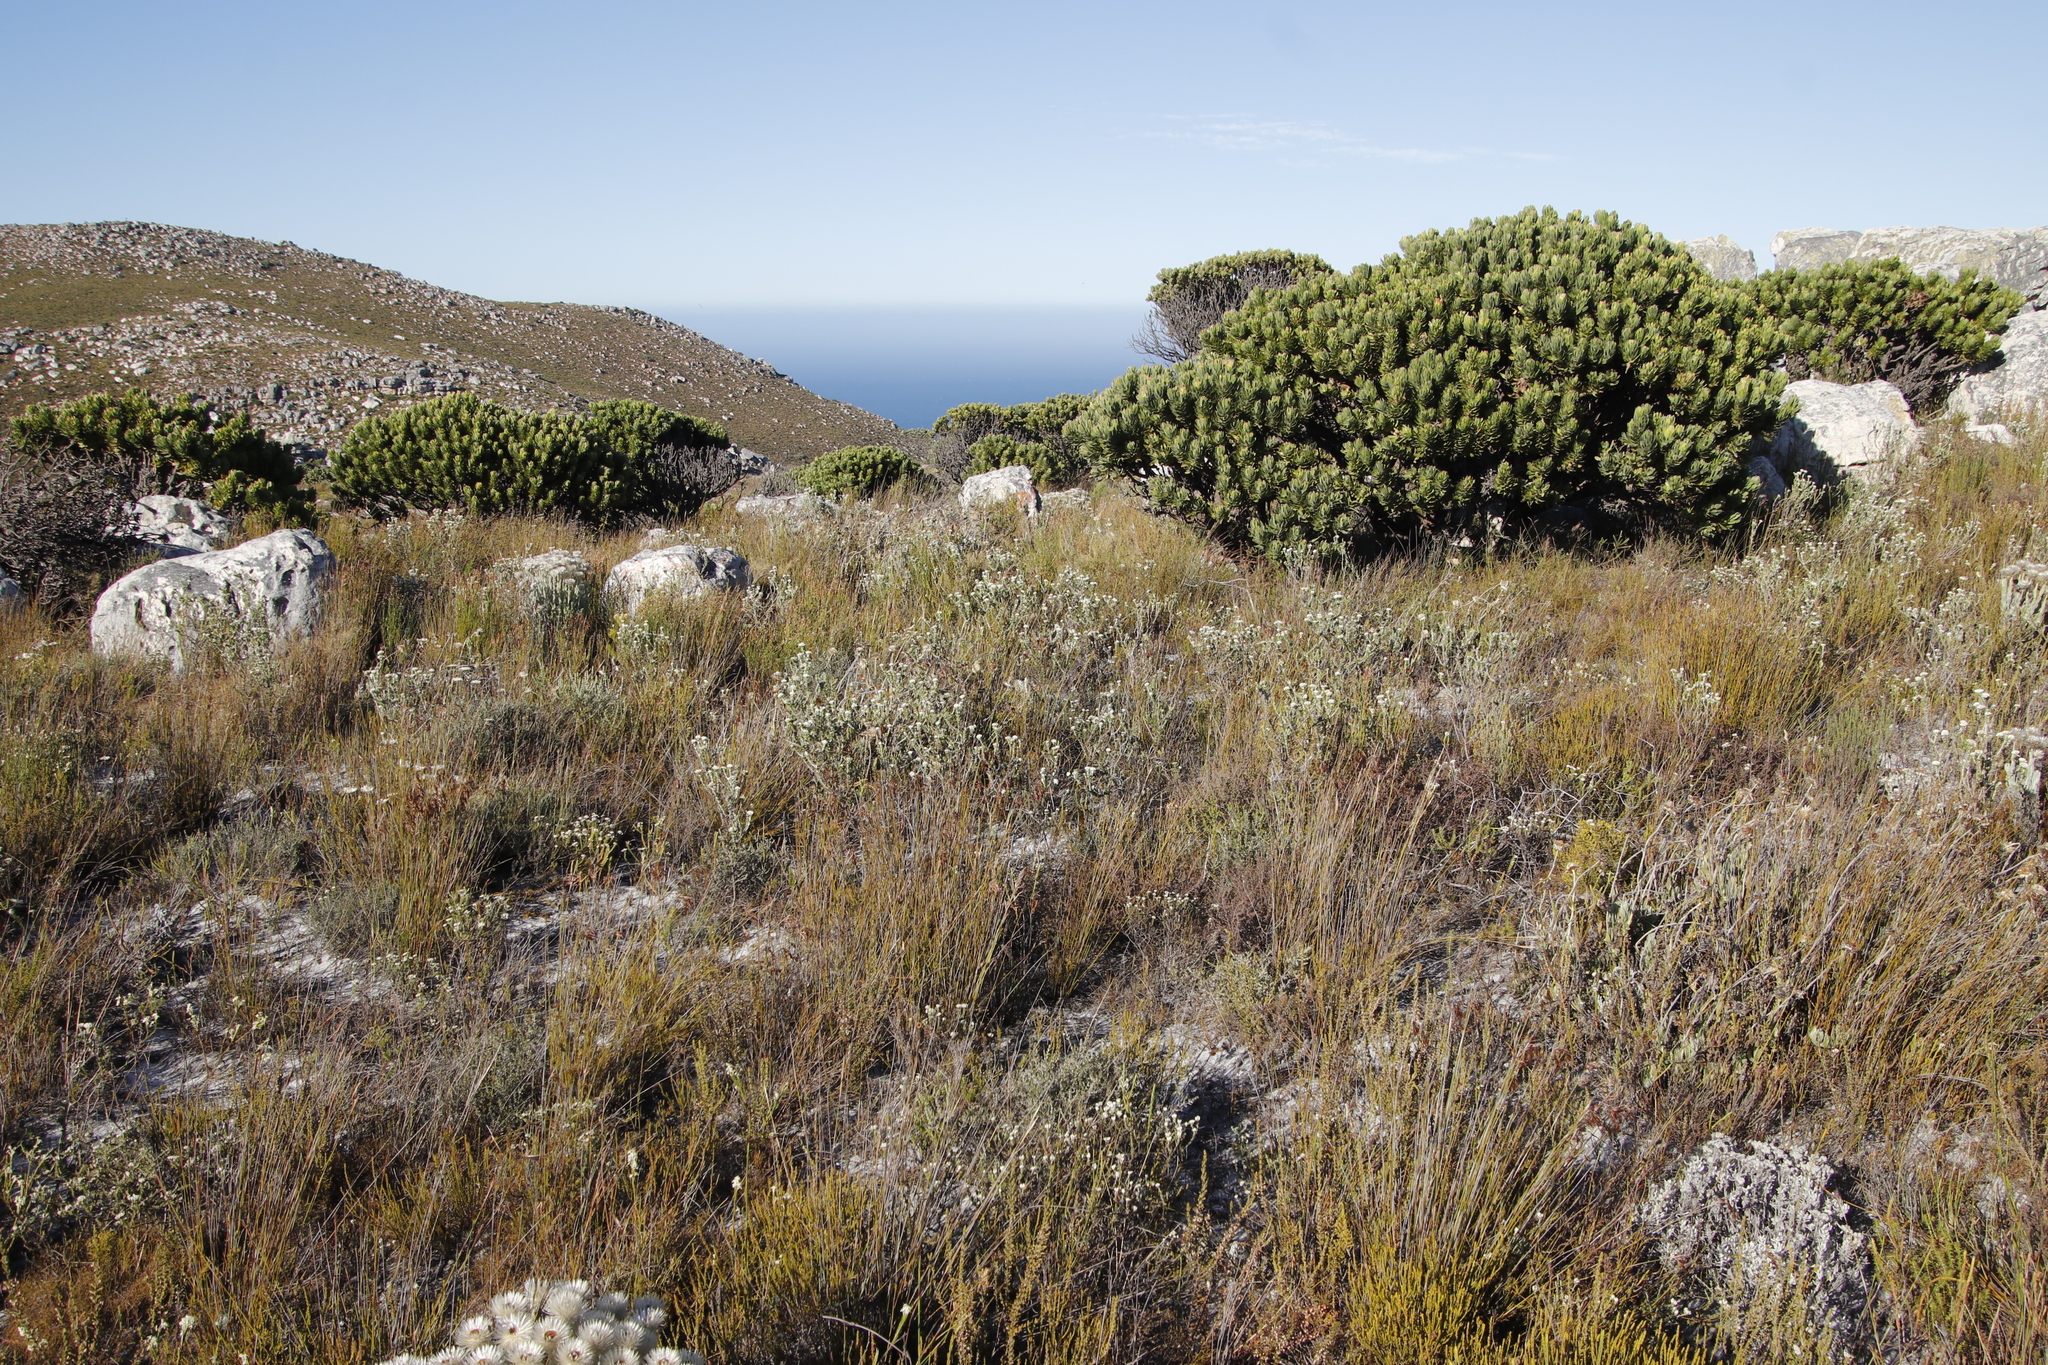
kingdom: Plantae
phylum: Tracheophyta
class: Magnoliopsida
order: Proteales
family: Proteaceae
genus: Mimetes
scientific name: Mimetes fimbriifolius
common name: Fringed bottlebrush
